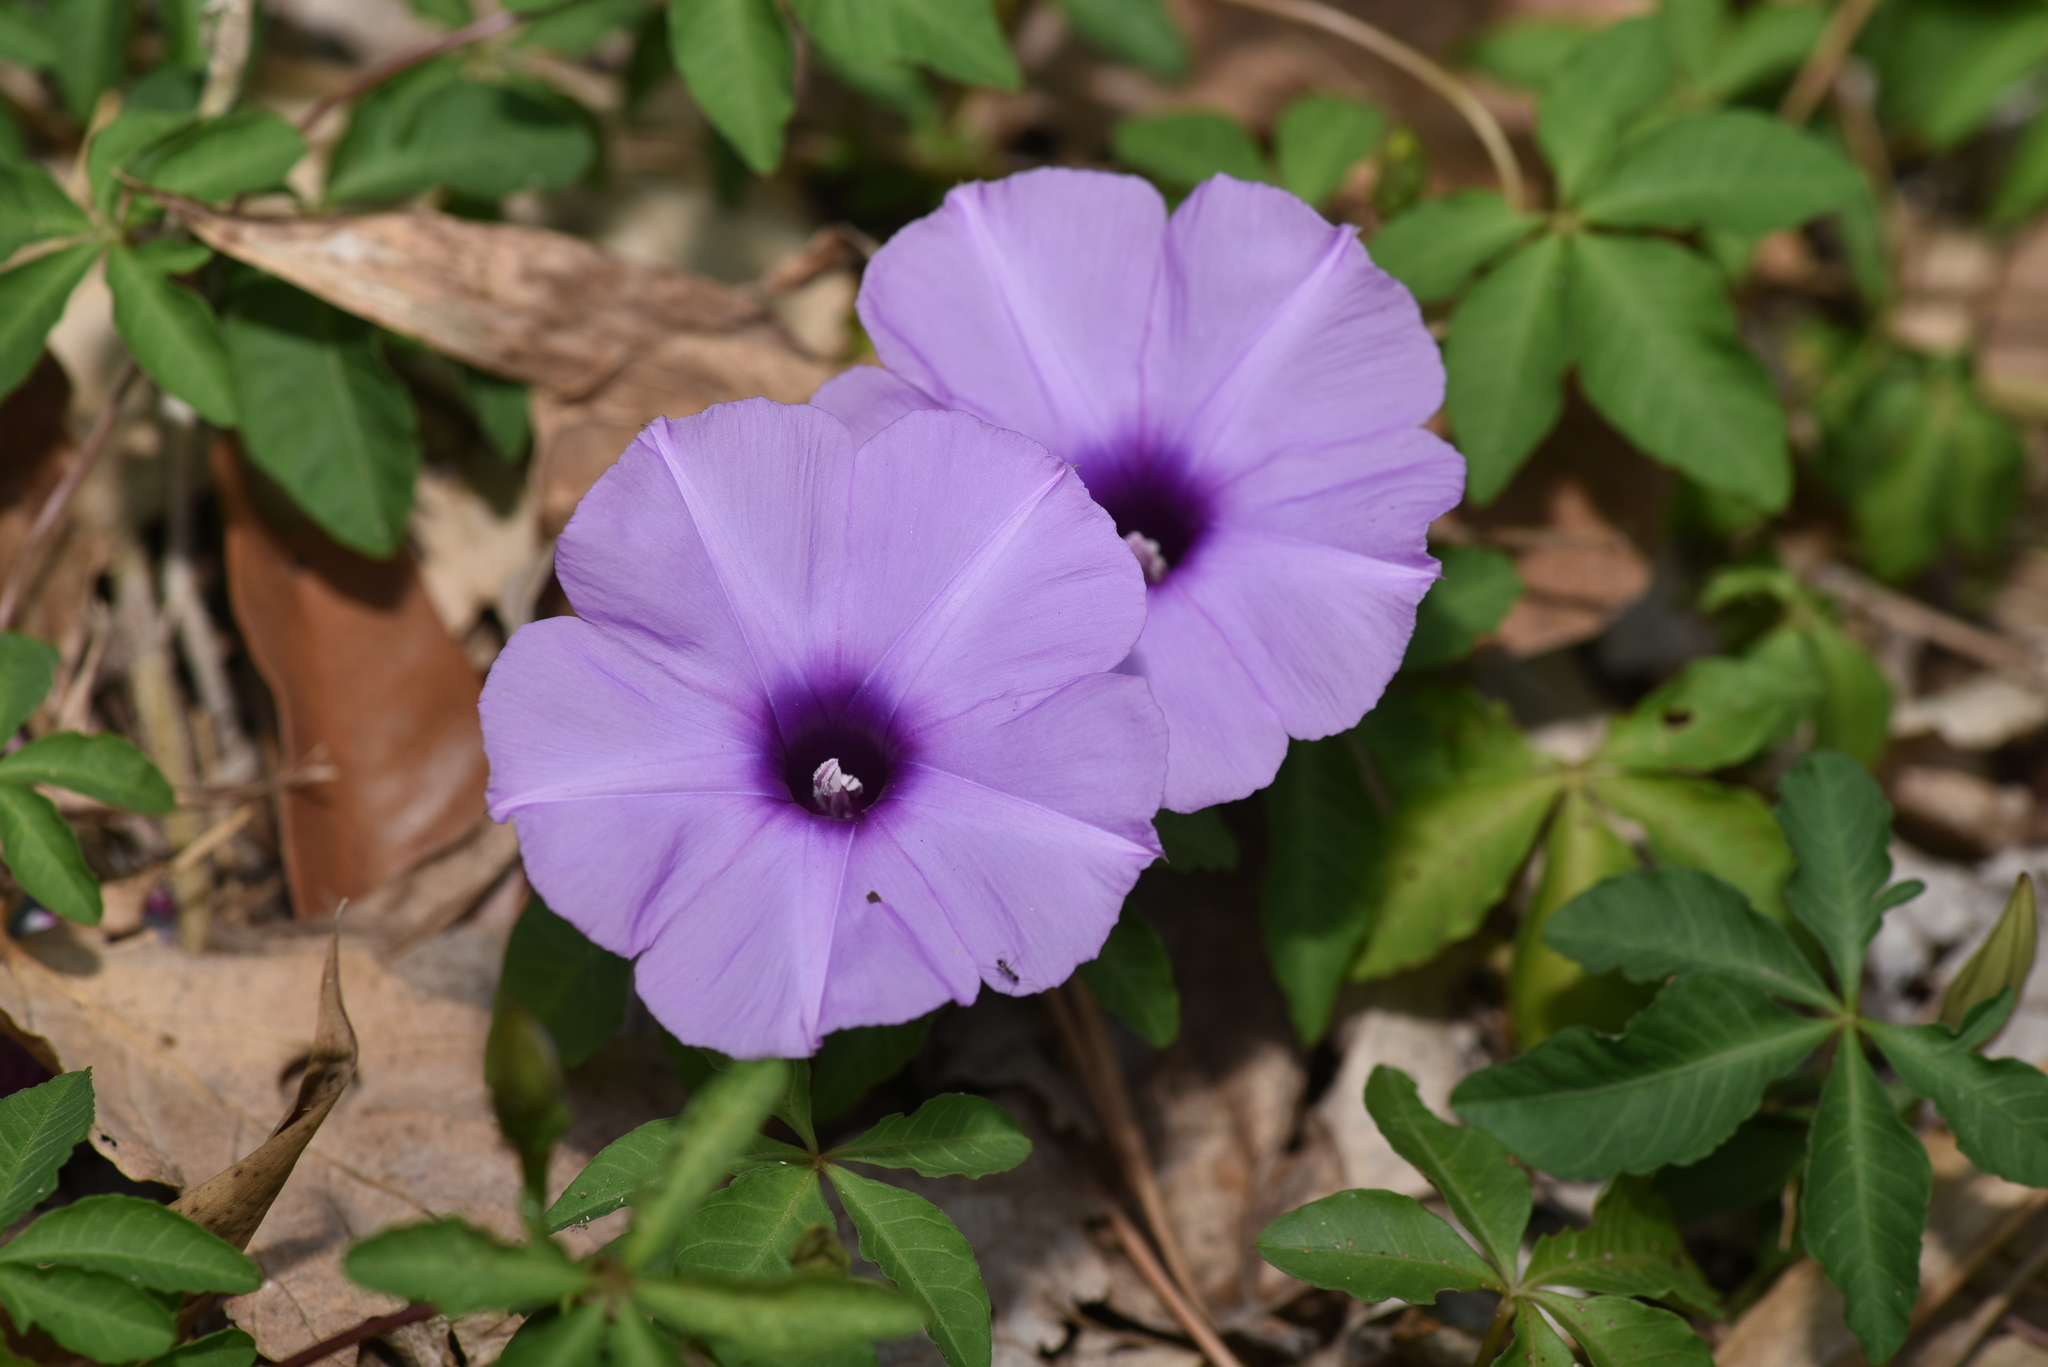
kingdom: Plantae
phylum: Tracheophyta
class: Magnoliopsida
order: Solanales
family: Convolvulaceae
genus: Ipomoea
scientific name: Ipomoea cairica
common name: Mile a minute vine
